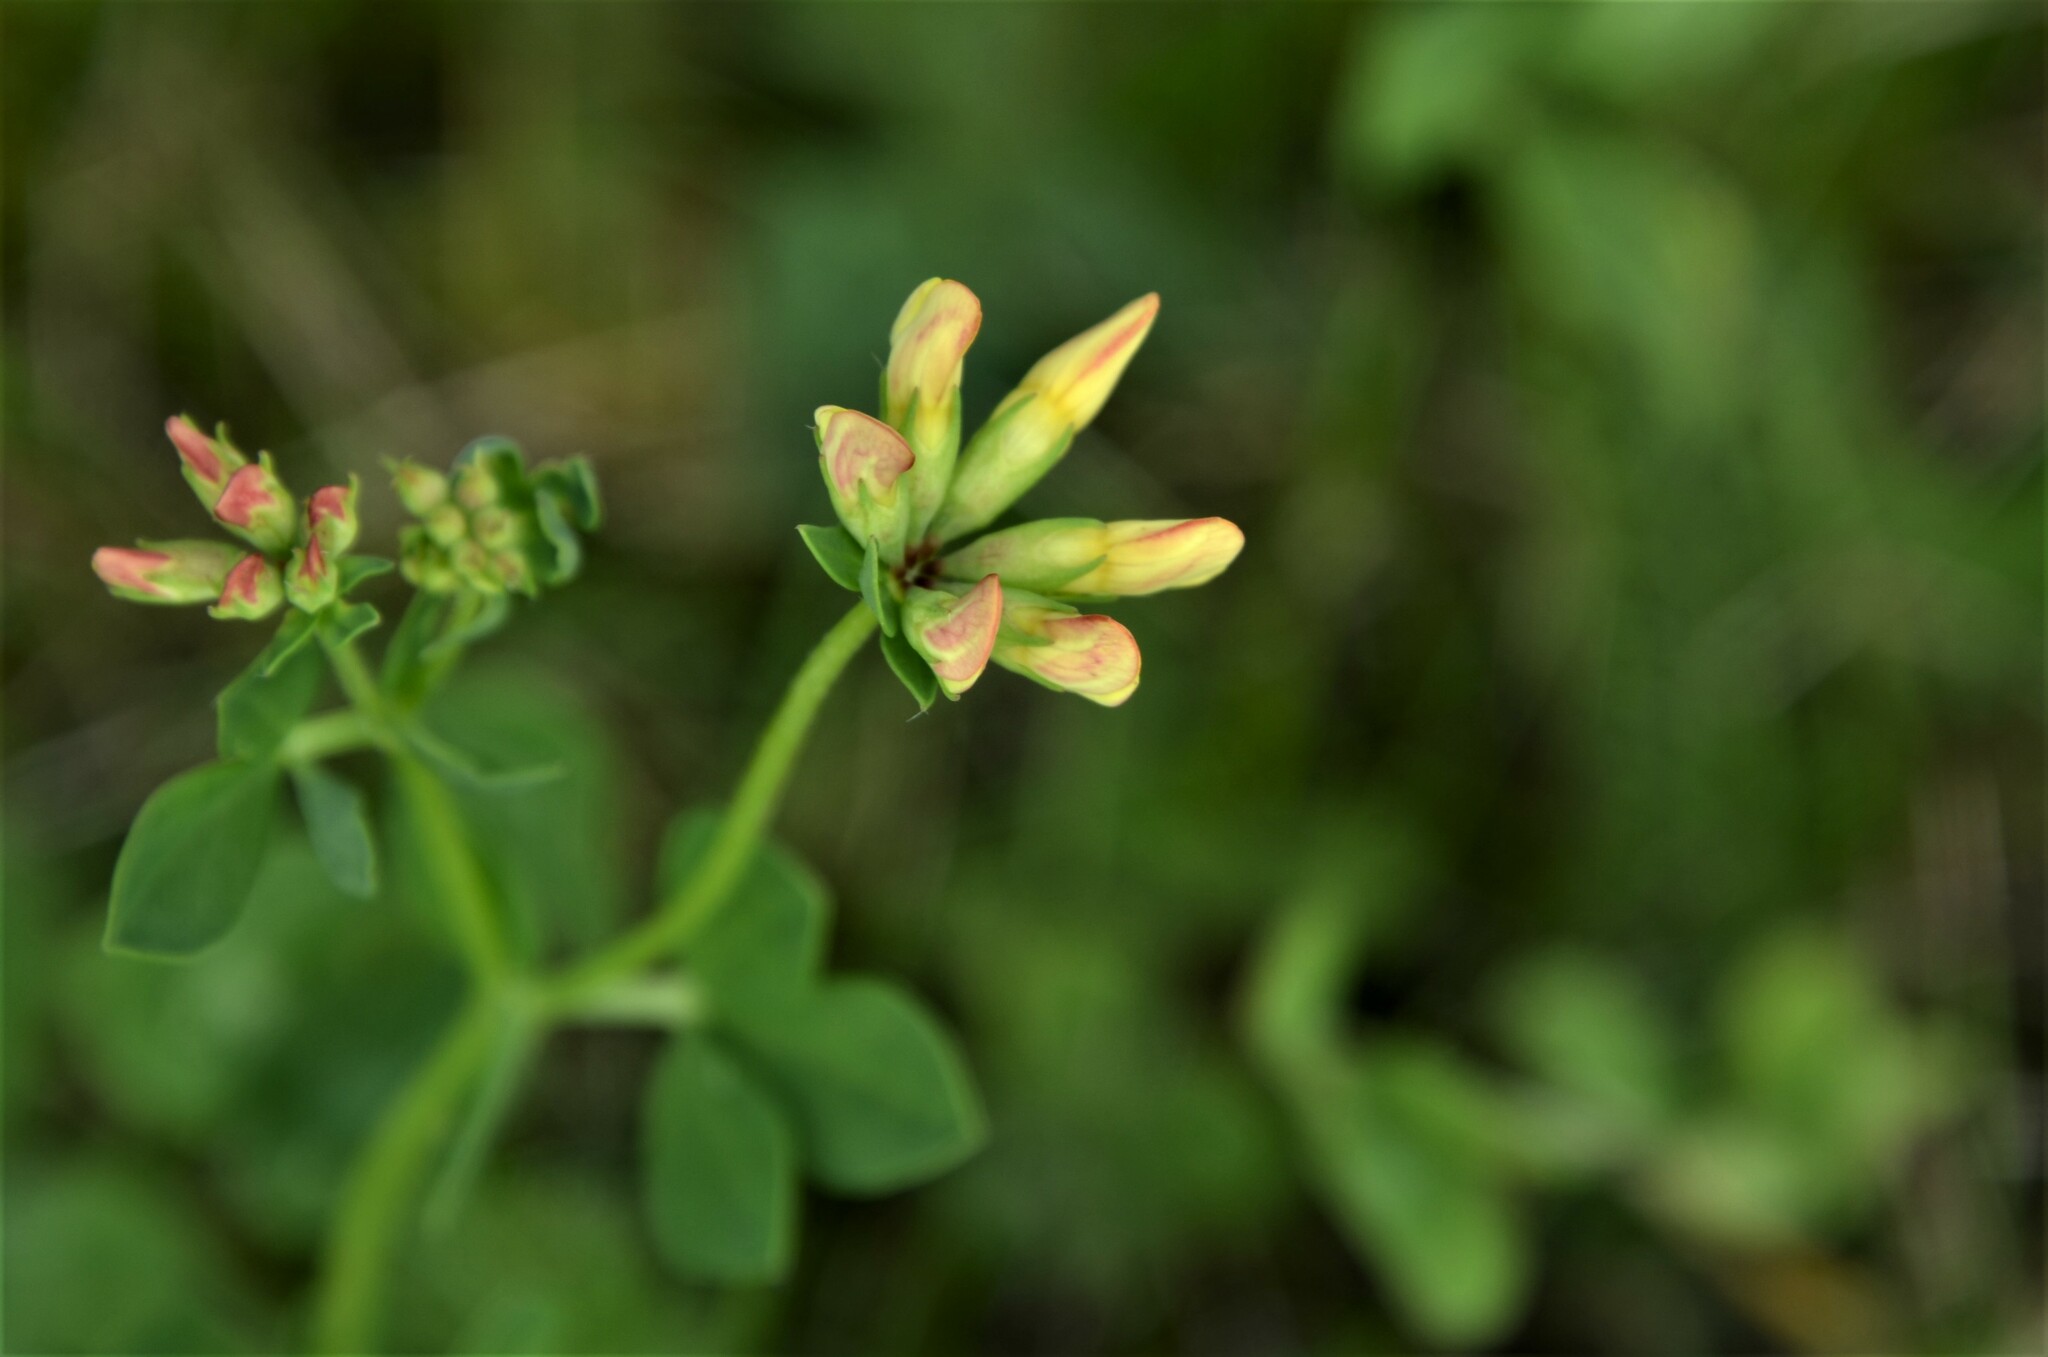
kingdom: Plantae
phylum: Tracheophyta
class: Magnoliopsida
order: Fabales
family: Fabaceae
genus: Lotus
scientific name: Lotus corniculatus
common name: Common bird's-foot-trefoil
